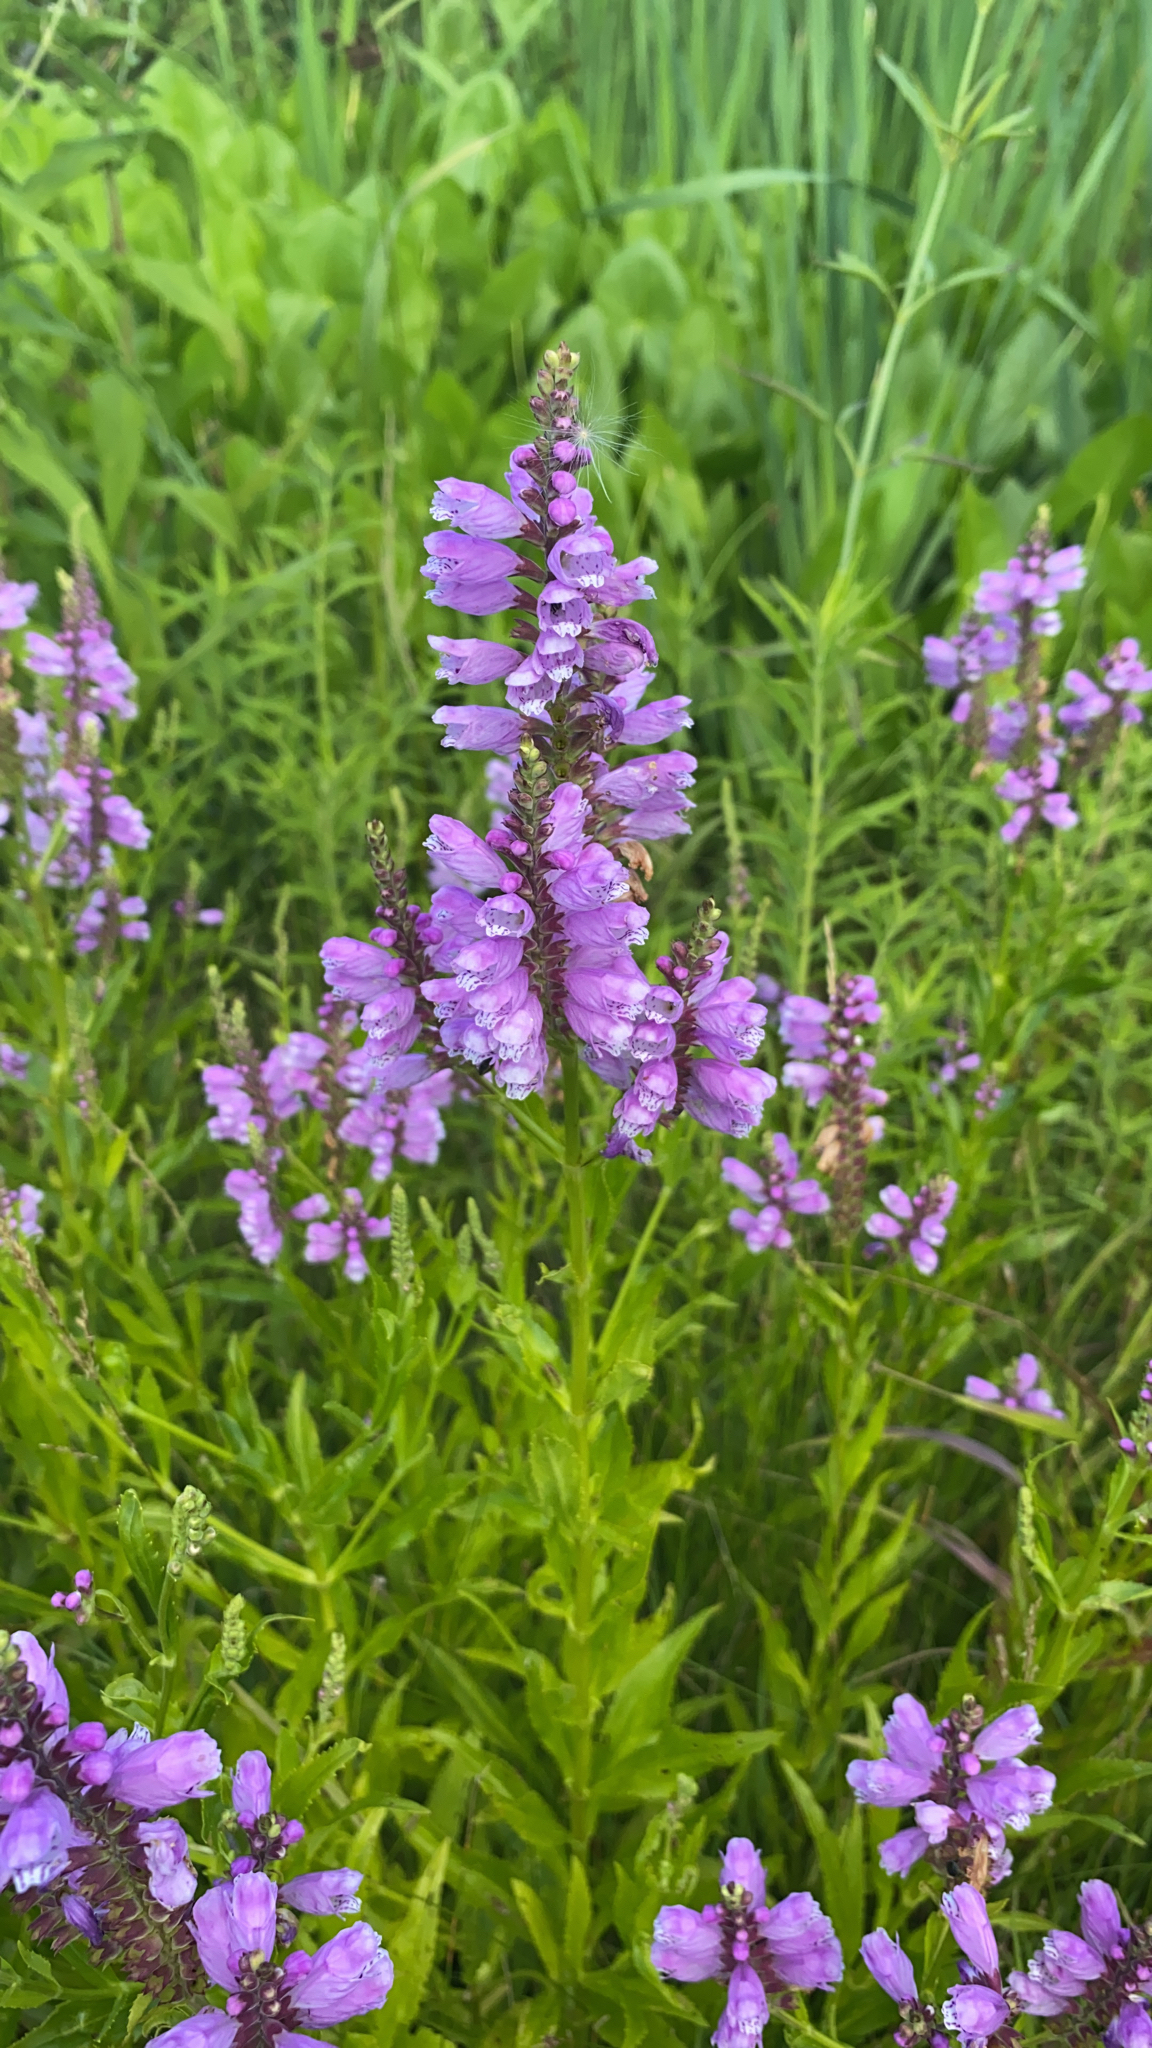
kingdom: Plantae
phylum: Tracheophyta
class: Magnoliopsida
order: Lamiales
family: Lamiaceae
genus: Physostegia
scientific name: Physostegia virginiana
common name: Obedient-plant
